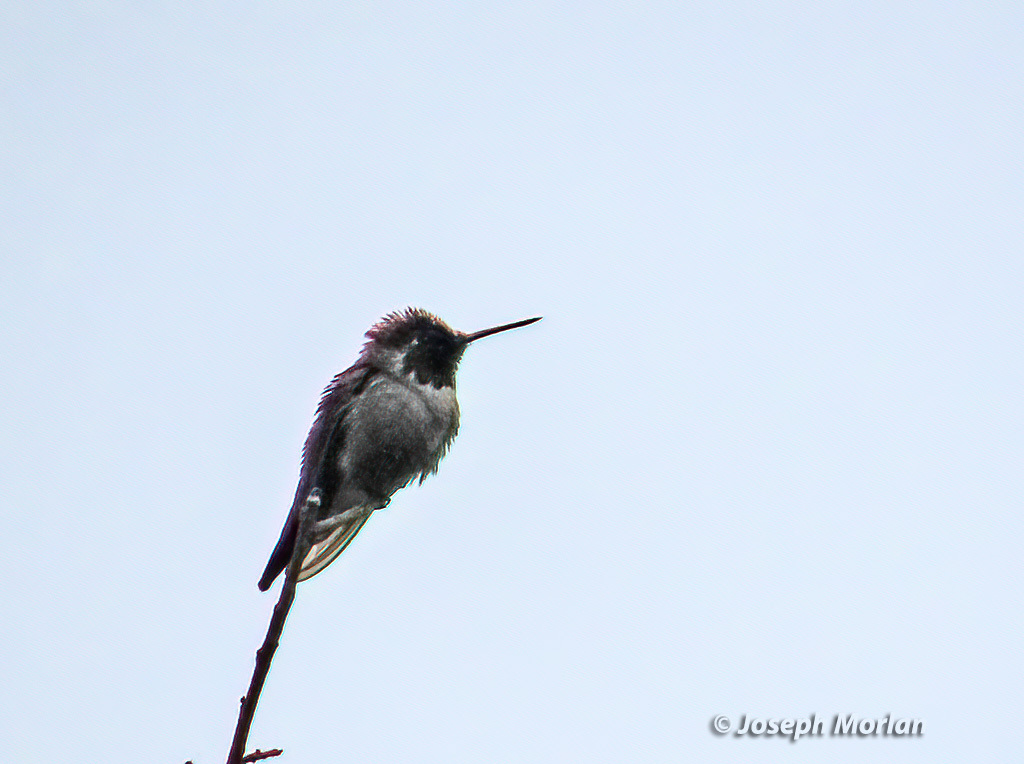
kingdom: Animalia
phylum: Chordata
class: Aves
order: Apodiformes
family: Trochilidae
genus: Calypte
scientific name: Calypte anna
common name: Anna's hummingbird
